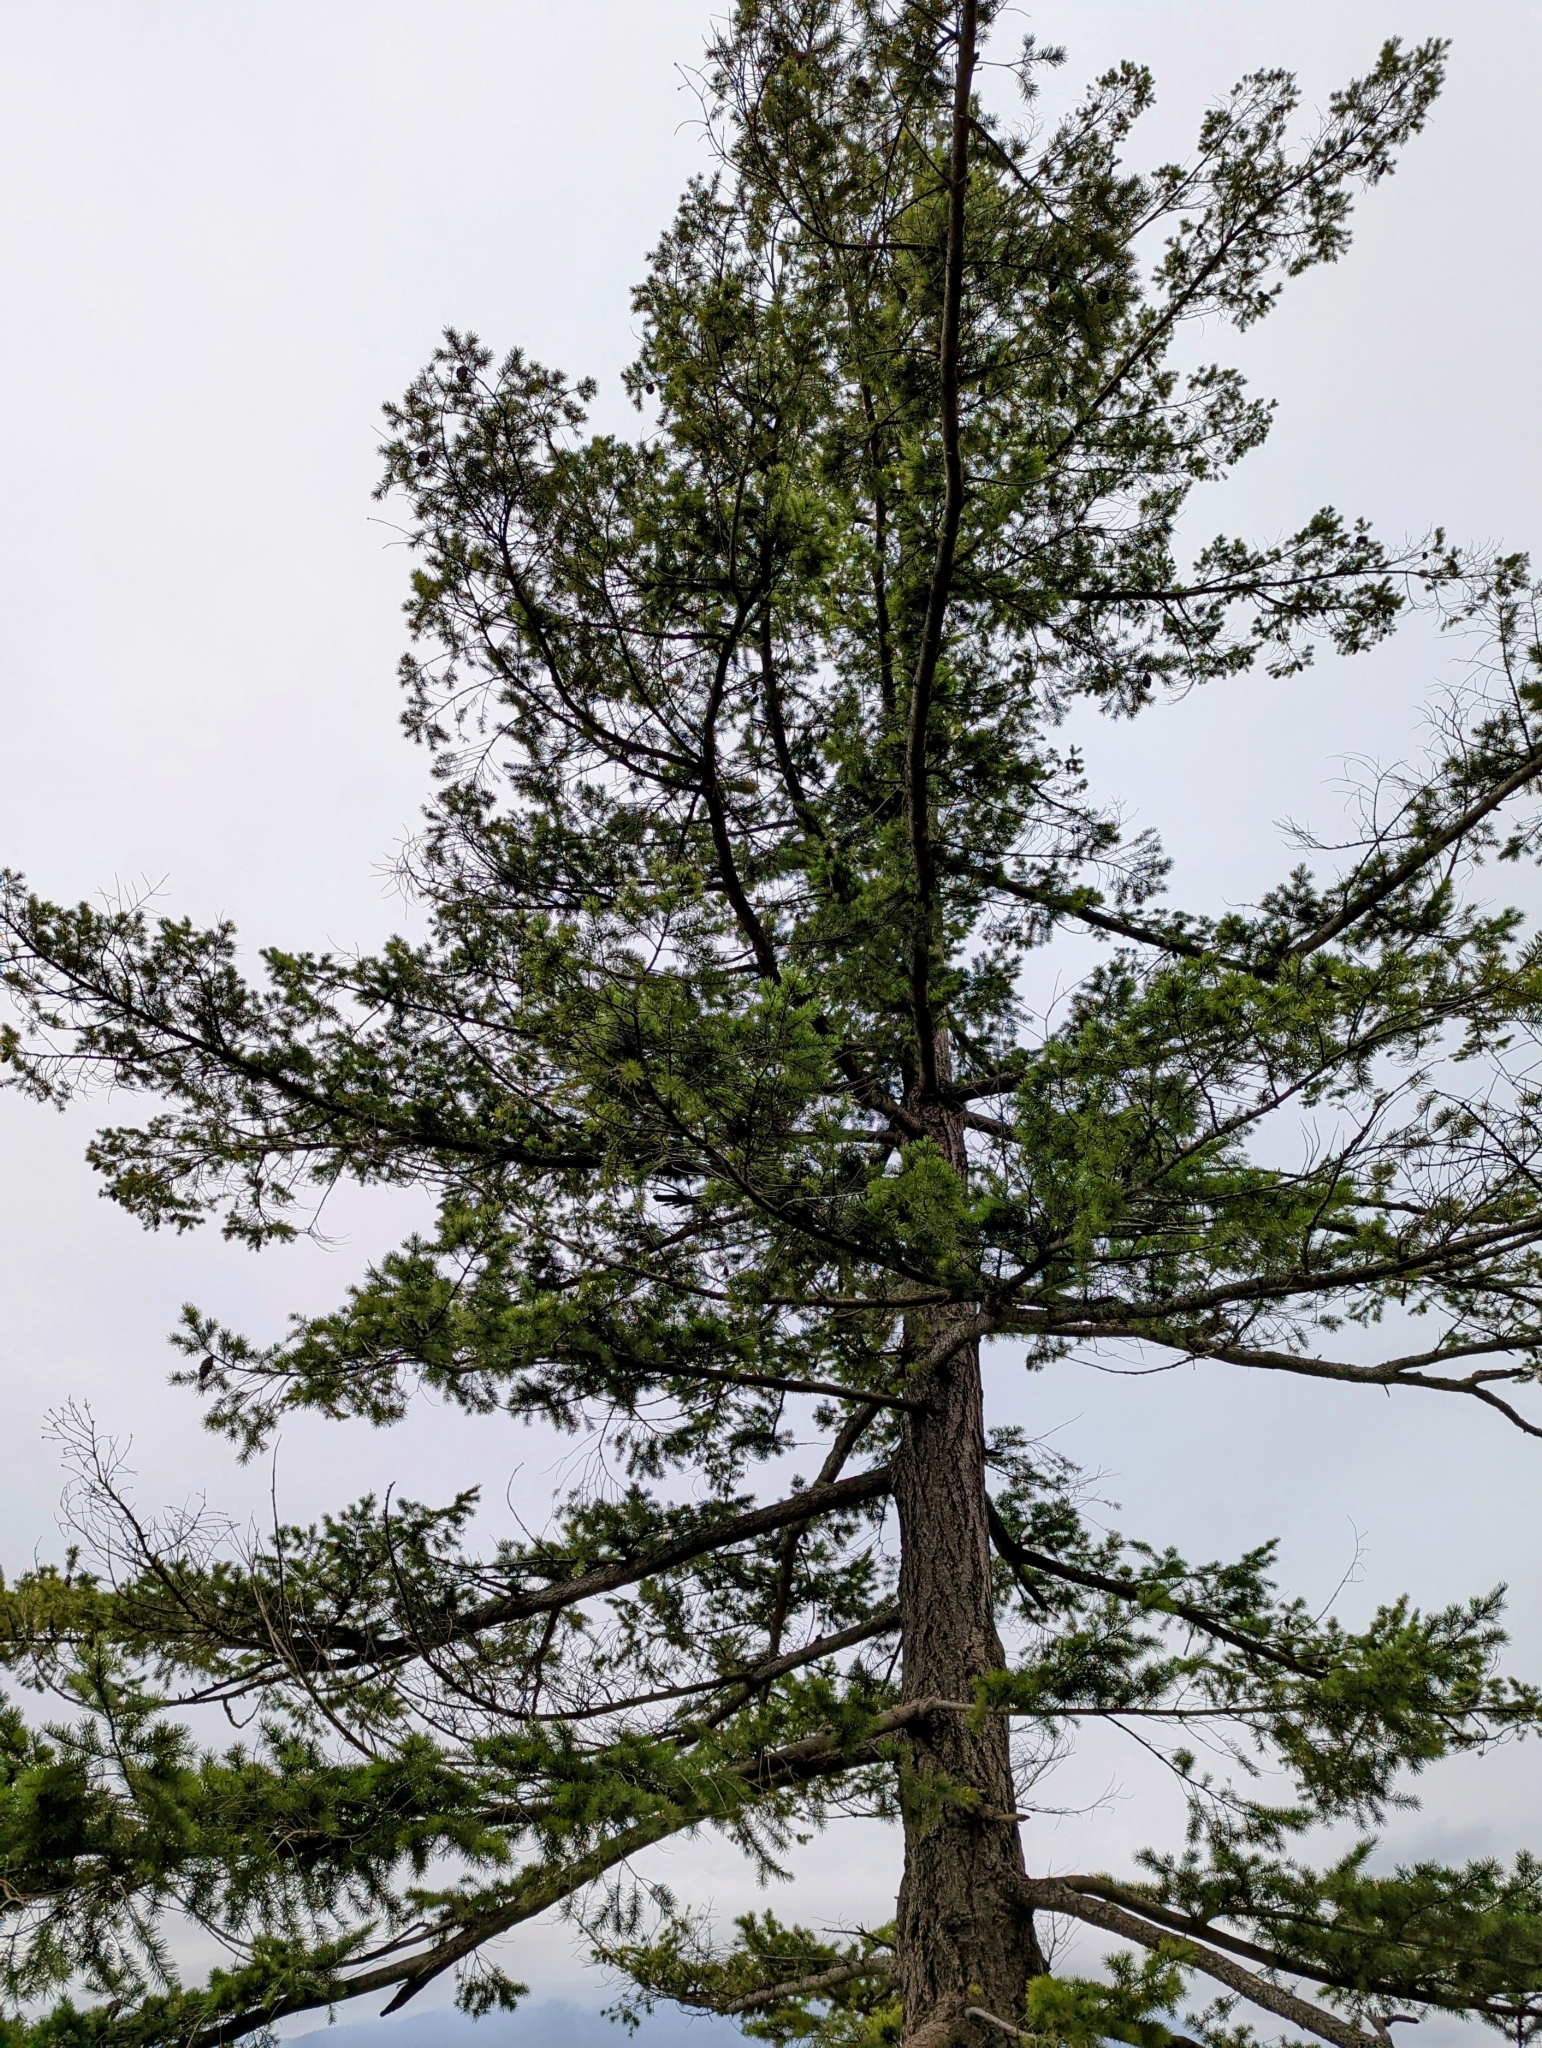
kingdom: Plantae
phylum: Tracheophyta
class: Pinopsida
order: Pinales
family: Pinaceae
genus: Pseudotsuga
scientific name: Pseudotsuga menziesii
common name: Douglas fir
